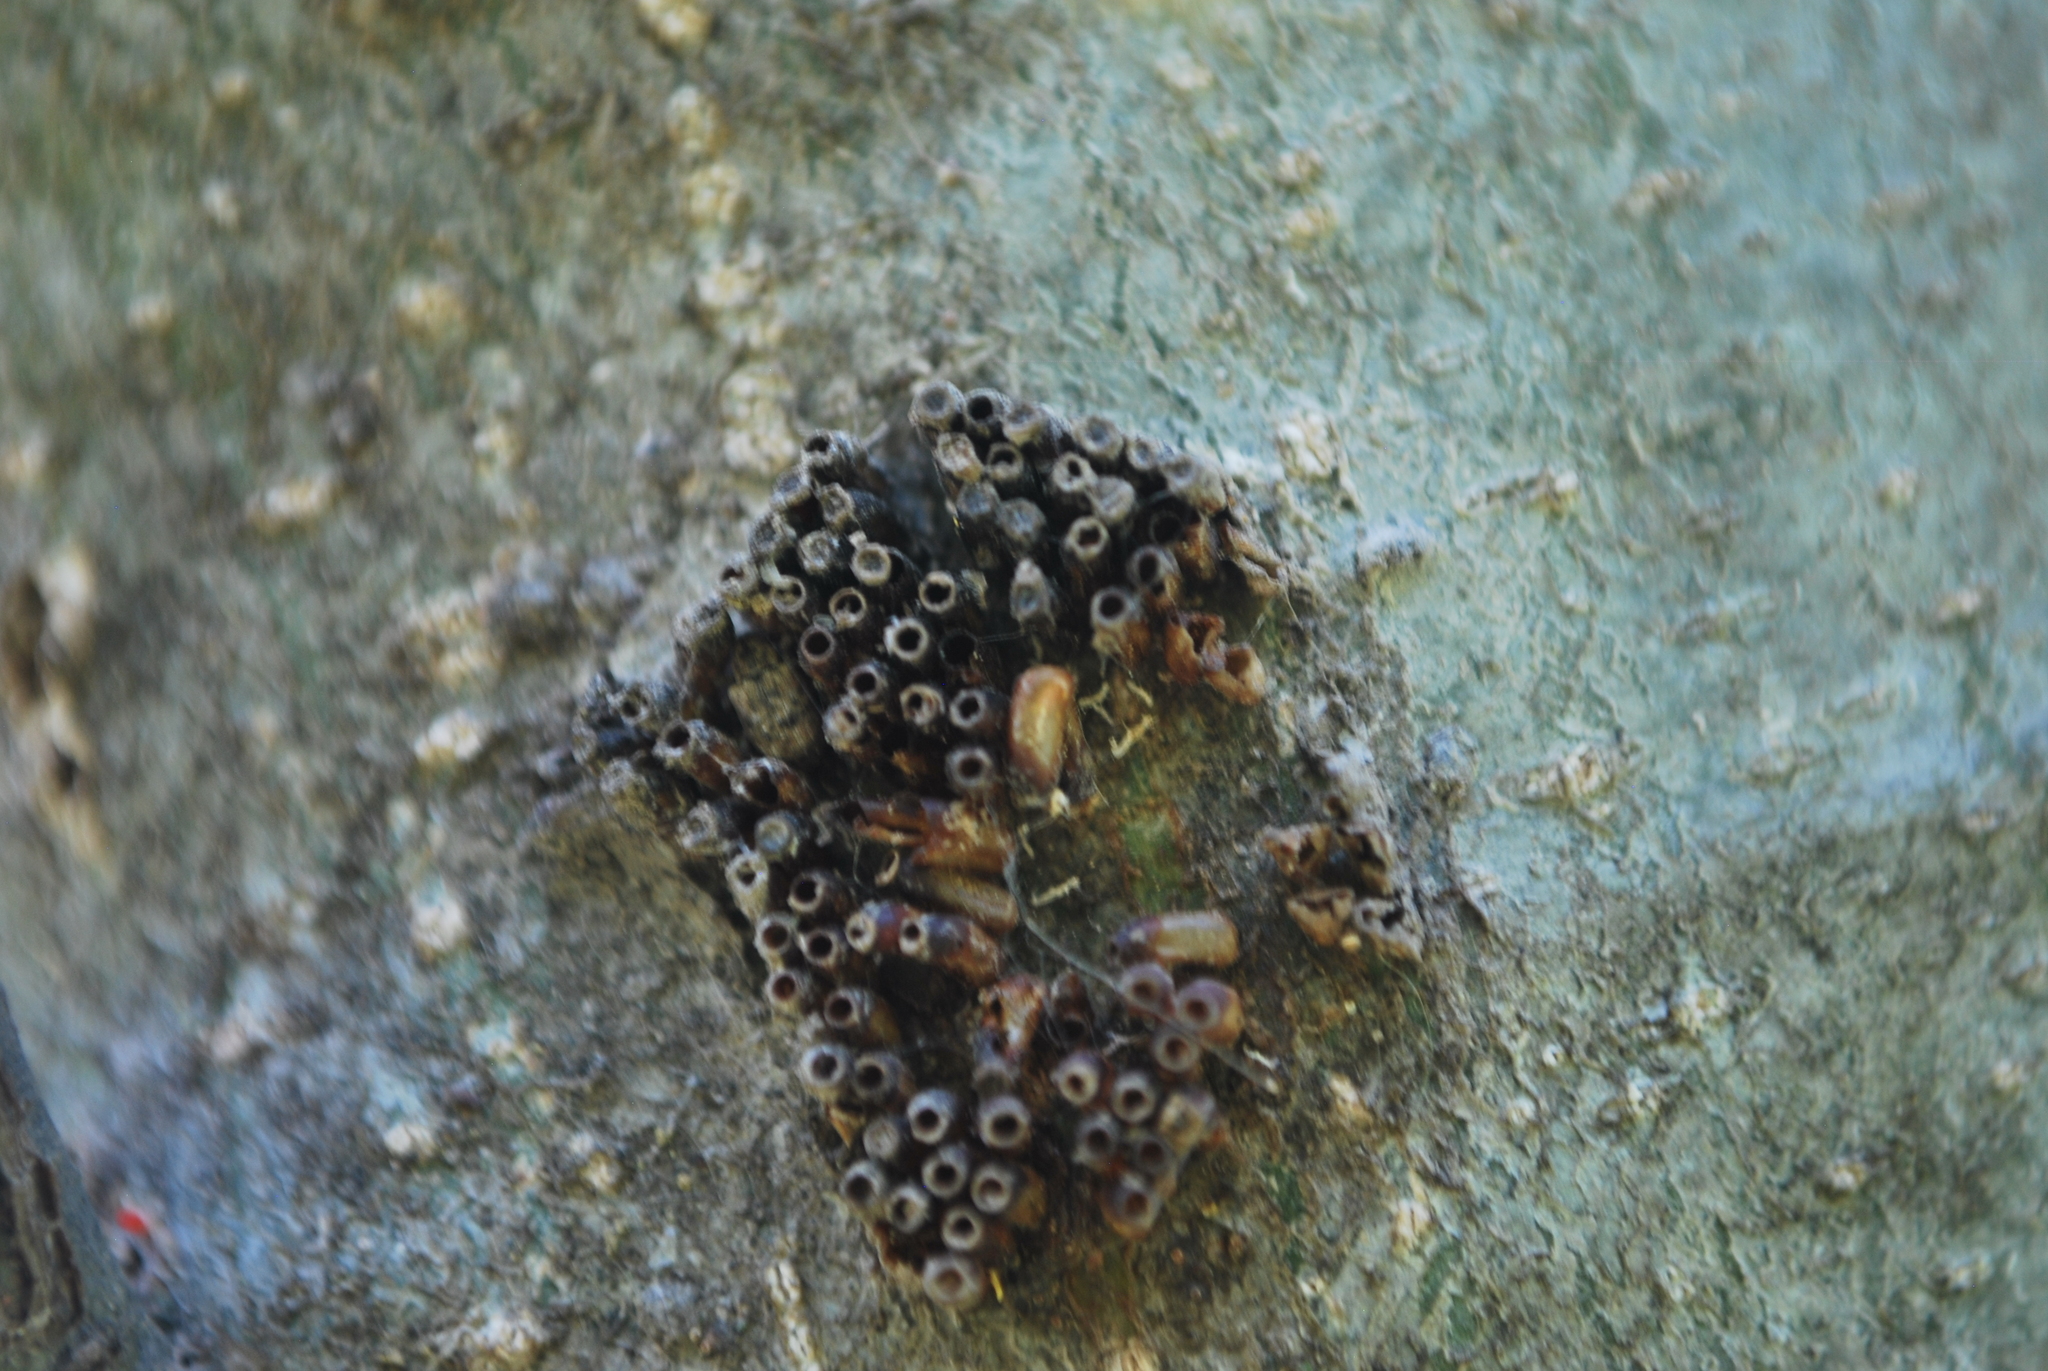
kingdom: Animalia
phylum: Arthropoda
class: Insecta
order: Hemiptera
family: Reduviidae
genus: Arilus
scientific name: Arilus cristatus
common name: North american wheel bug
